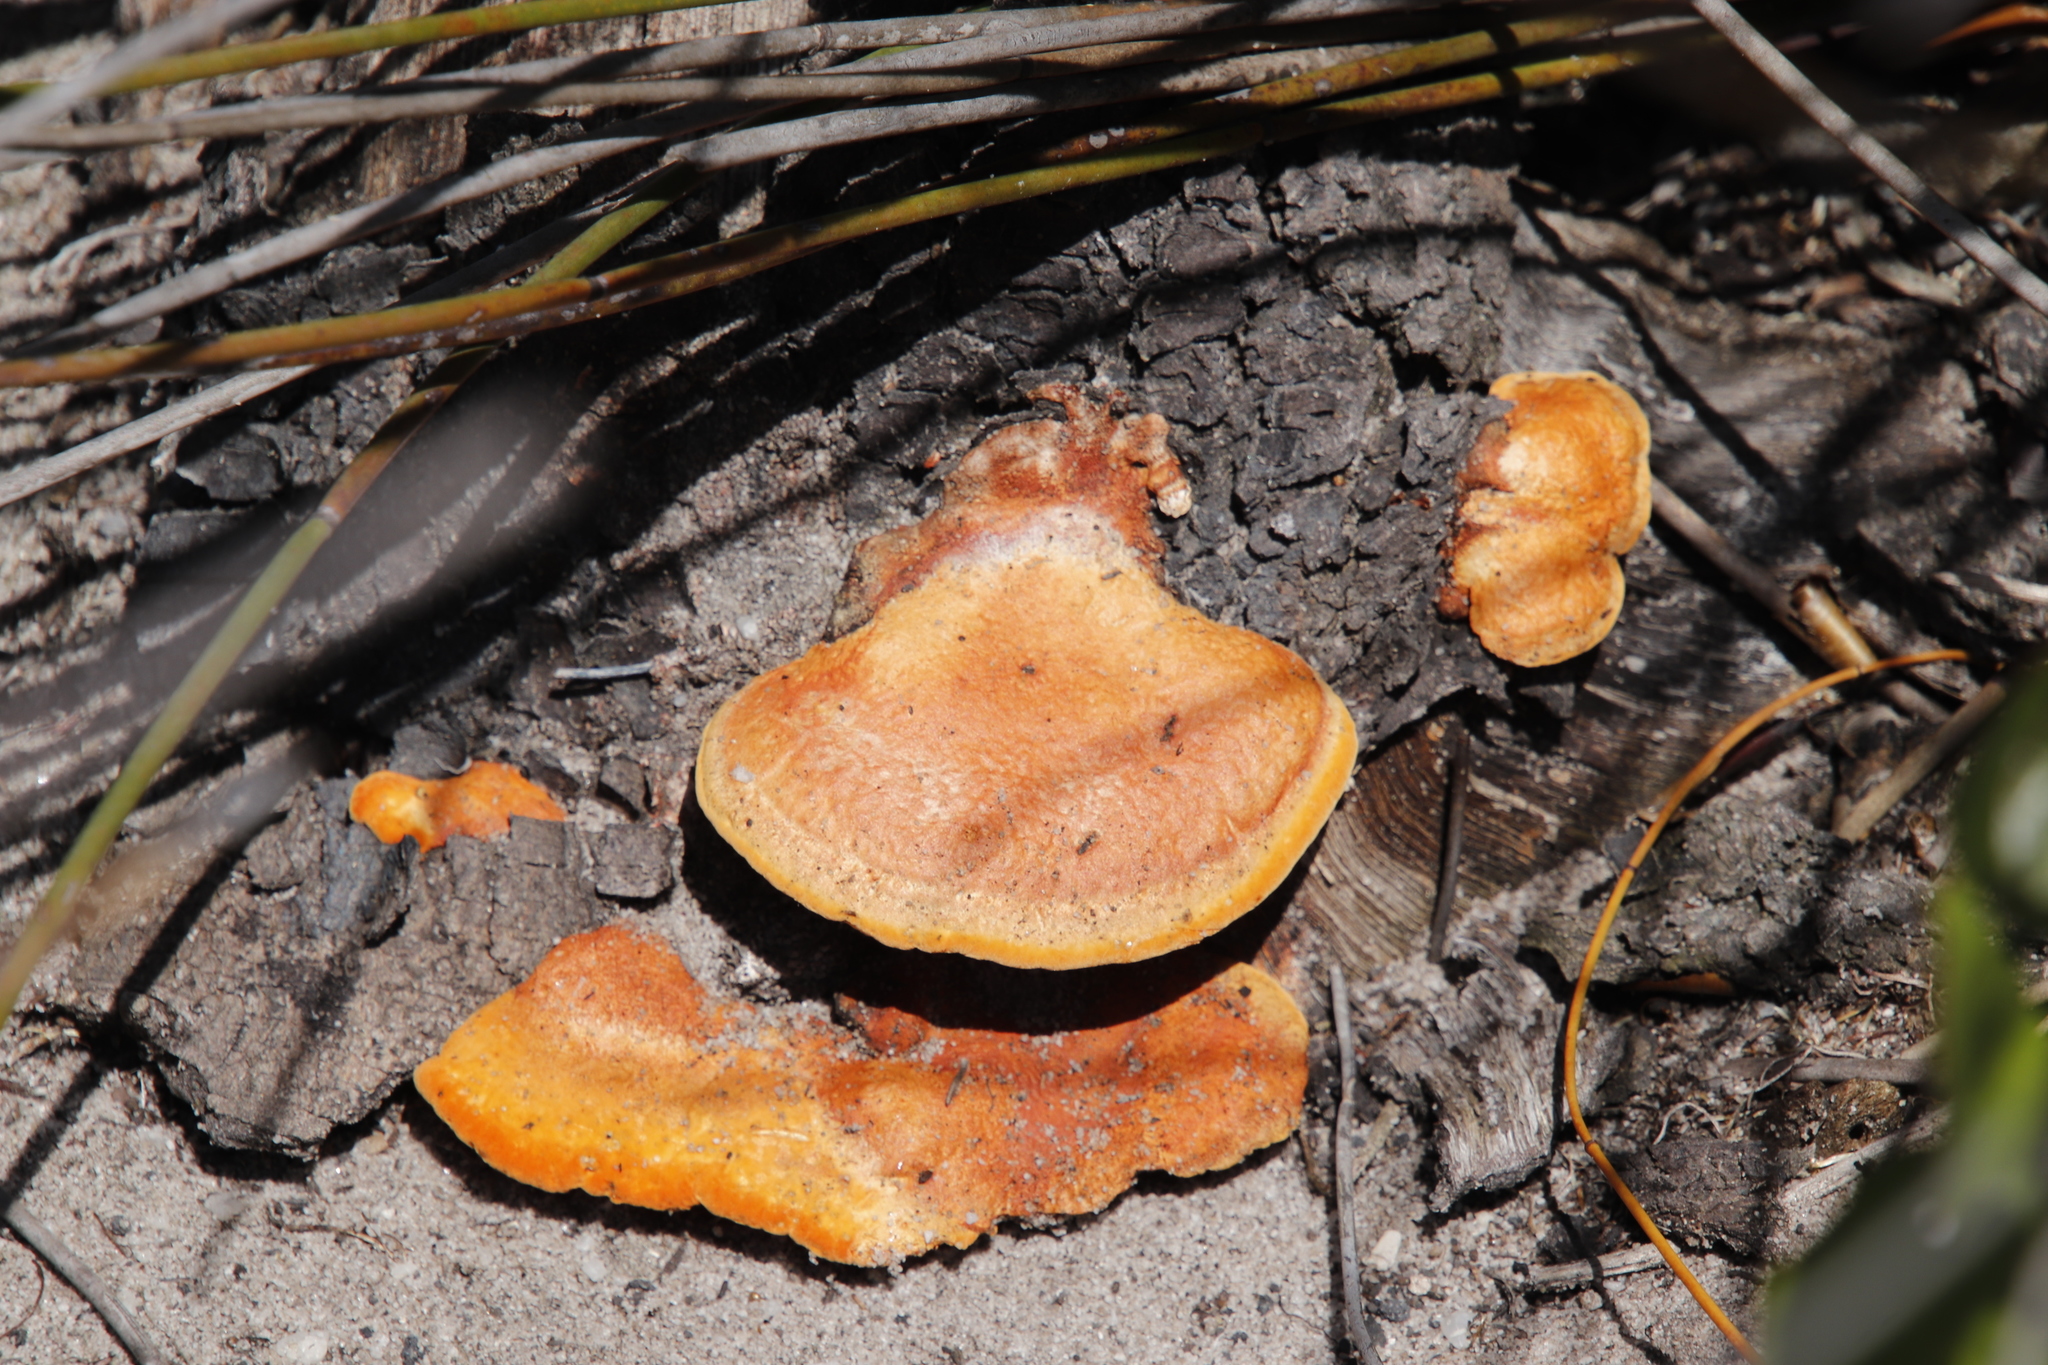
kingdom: Fungi
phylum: Basidiomycota
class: Agaricomycetes
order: Polyporales
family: Polyporaceae
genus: Trametes
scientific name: Trametes coccinea
